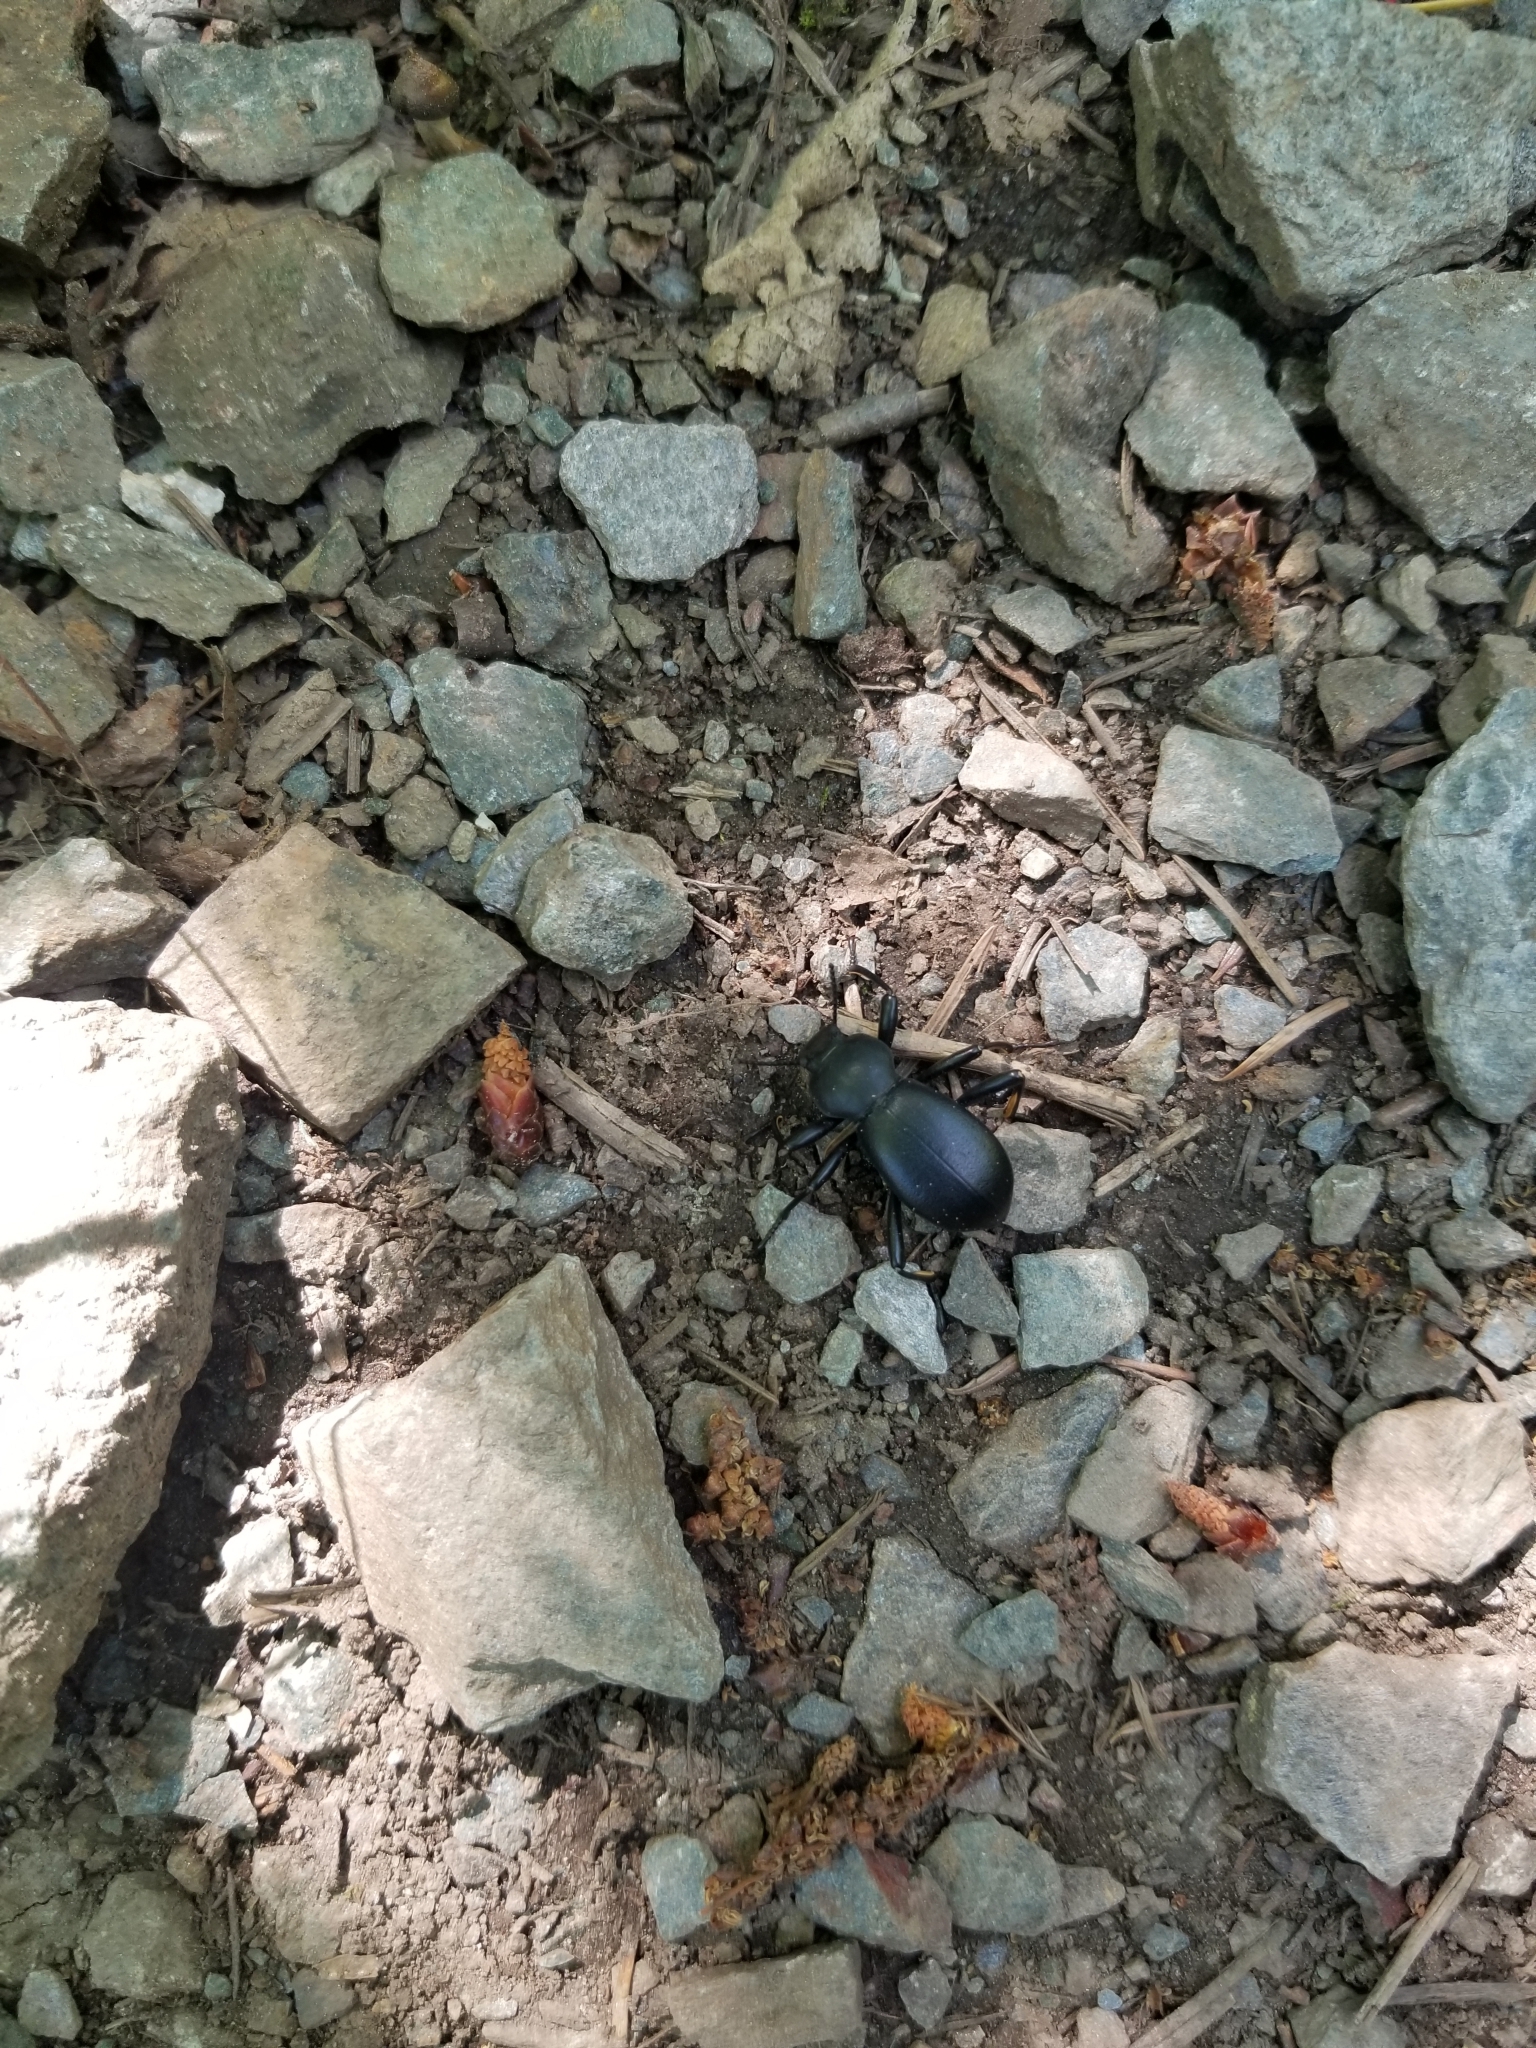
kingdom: Animalia
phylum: Arthropoda
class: Insecta
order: Coleoptera
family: Tenebrionidae
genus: Coelocnemis
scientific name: Coelocnemis dilaticollis
